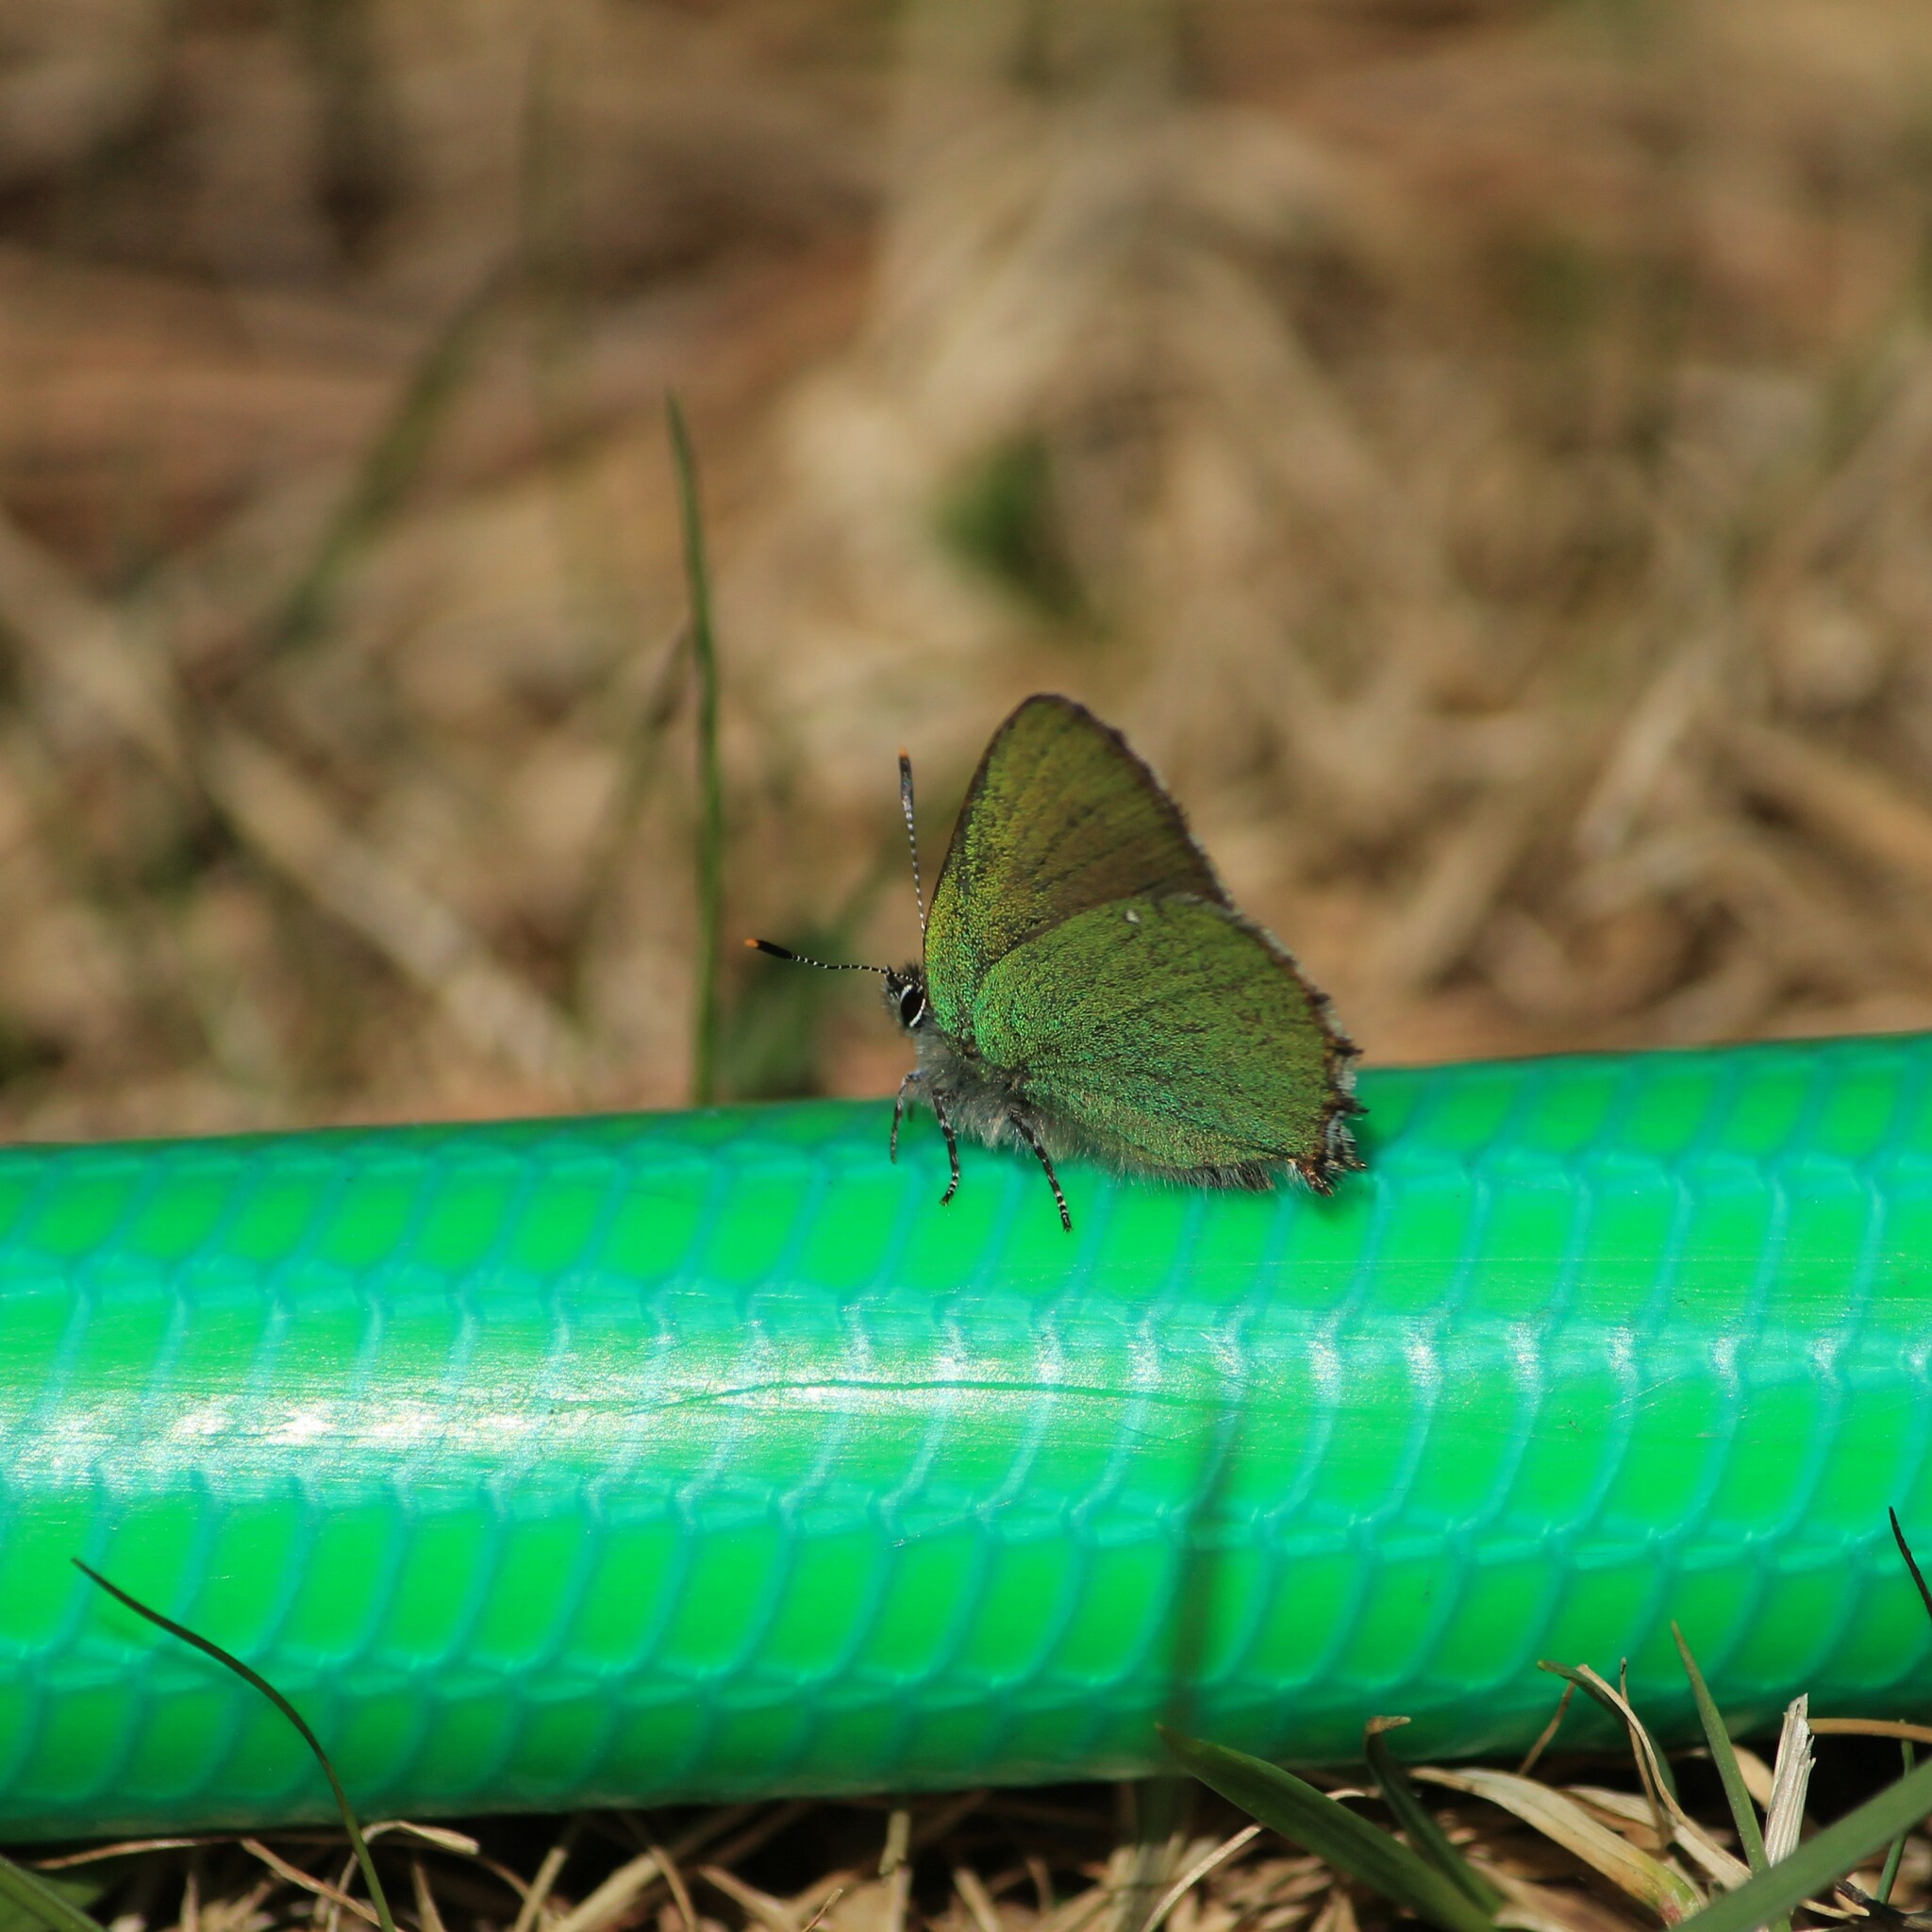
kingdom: Animalia
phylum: Arthropoda
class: Insecta
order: Lepidoptera
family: Lycaenidae
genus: Callophrys
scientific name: Callophrys rubi
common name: Green hairstreak
